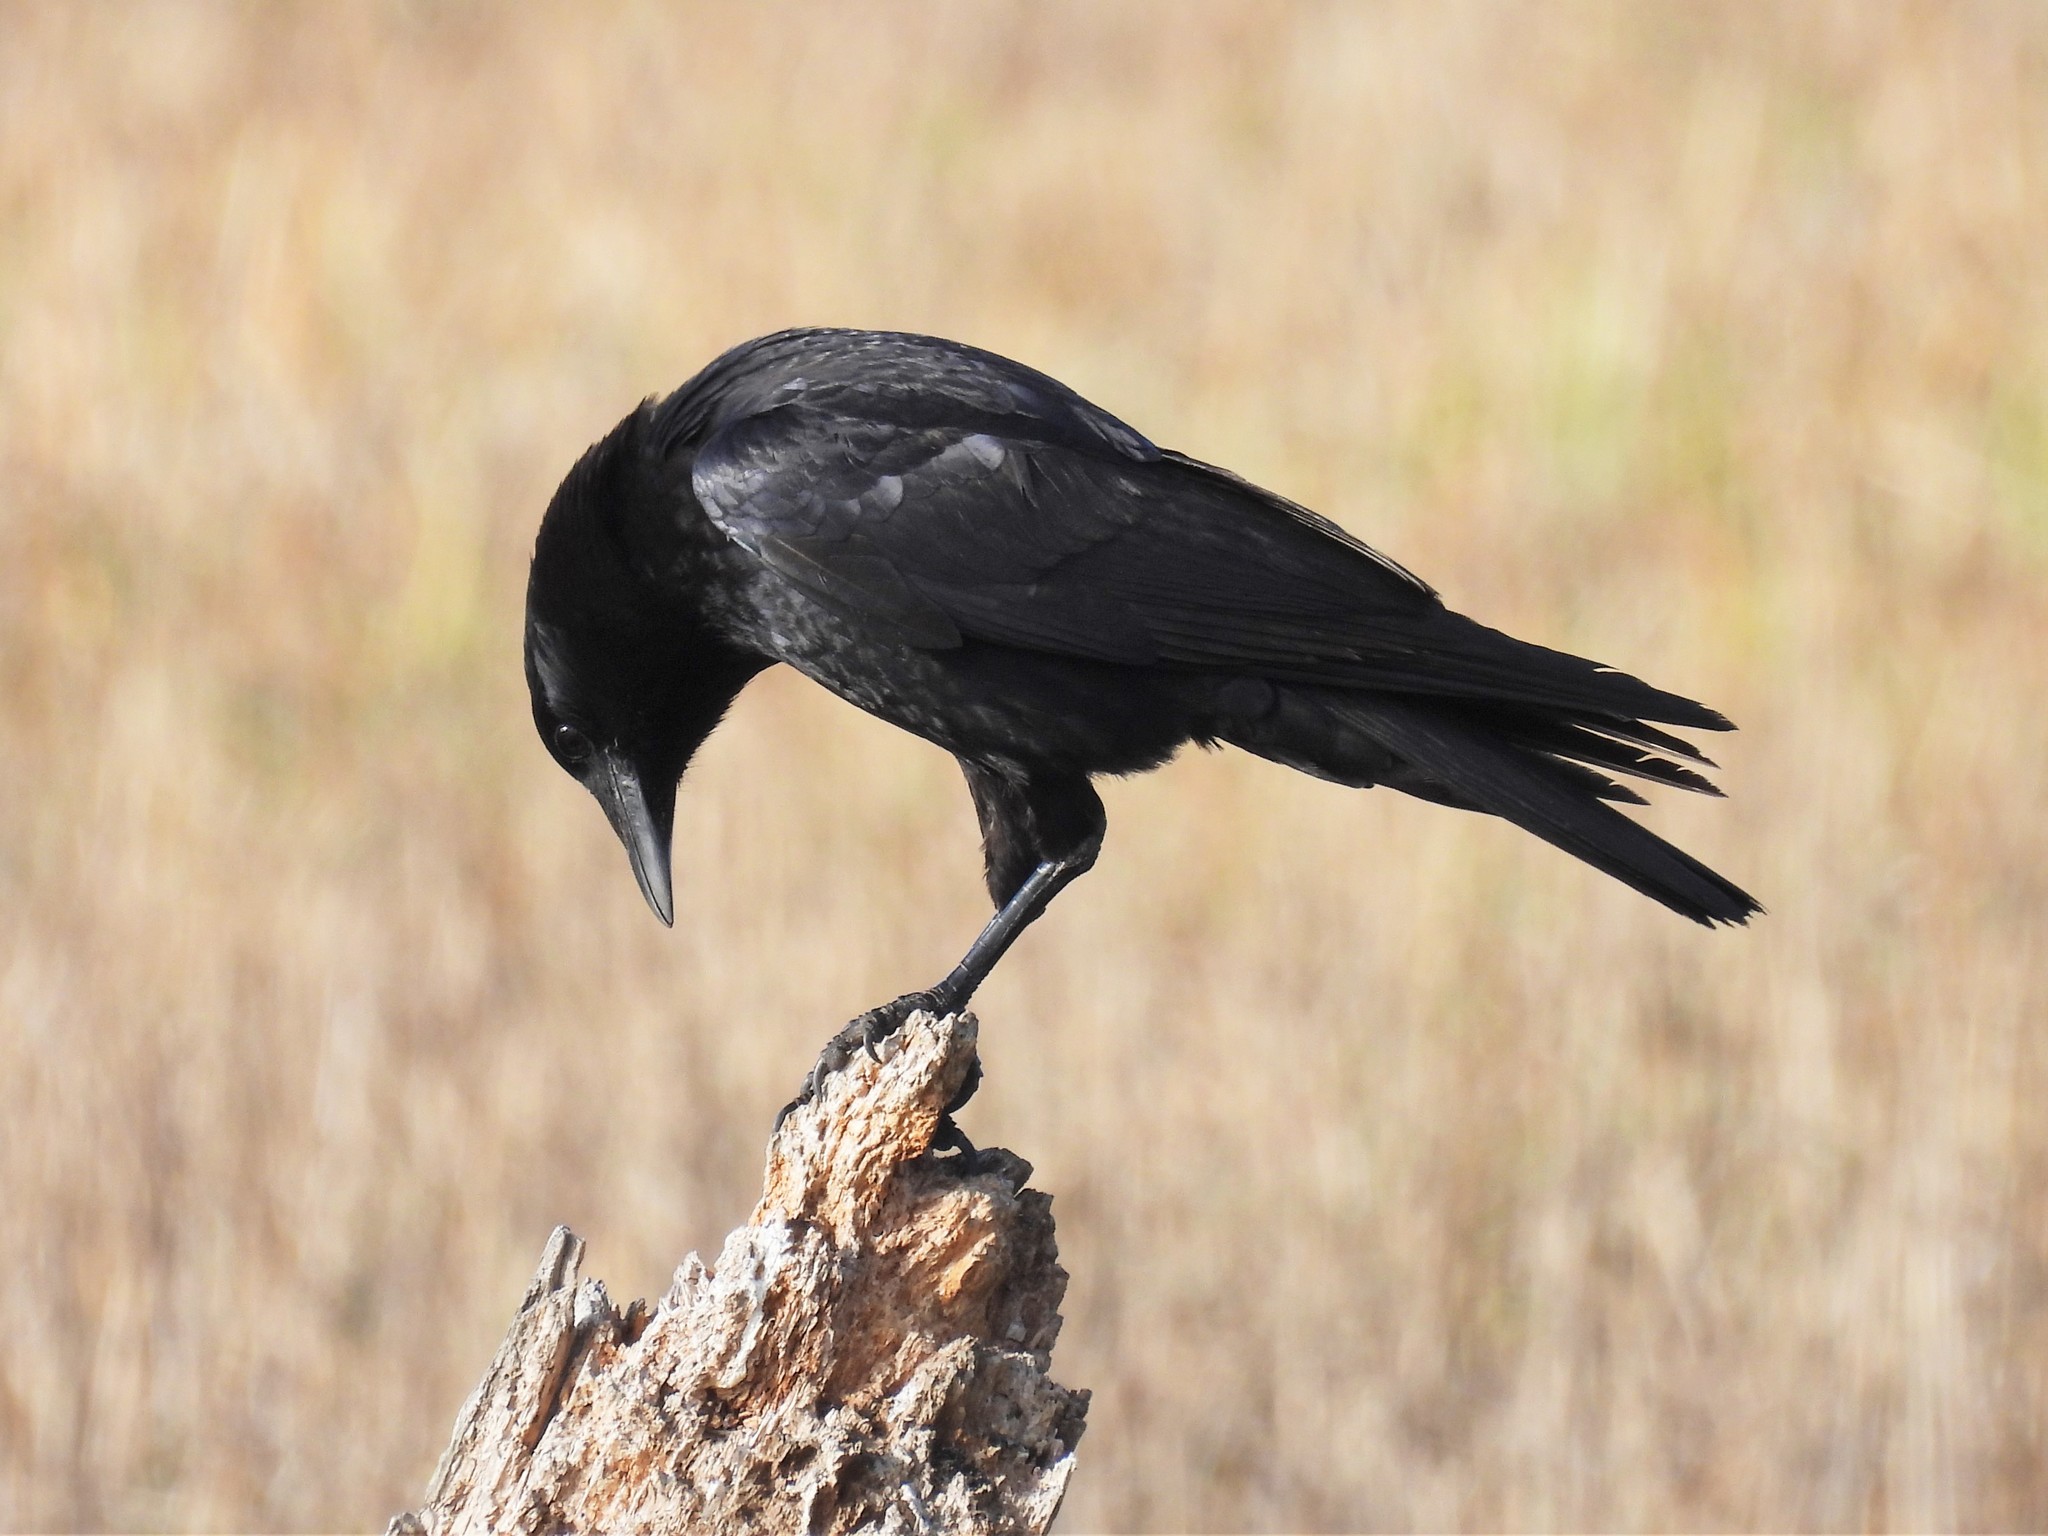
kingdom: Animalia
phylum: Chordata
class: Aves
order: Passeriformes
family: Corvidae
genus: Corvus
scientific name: Corvus brachyrhynchos
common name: American crow
